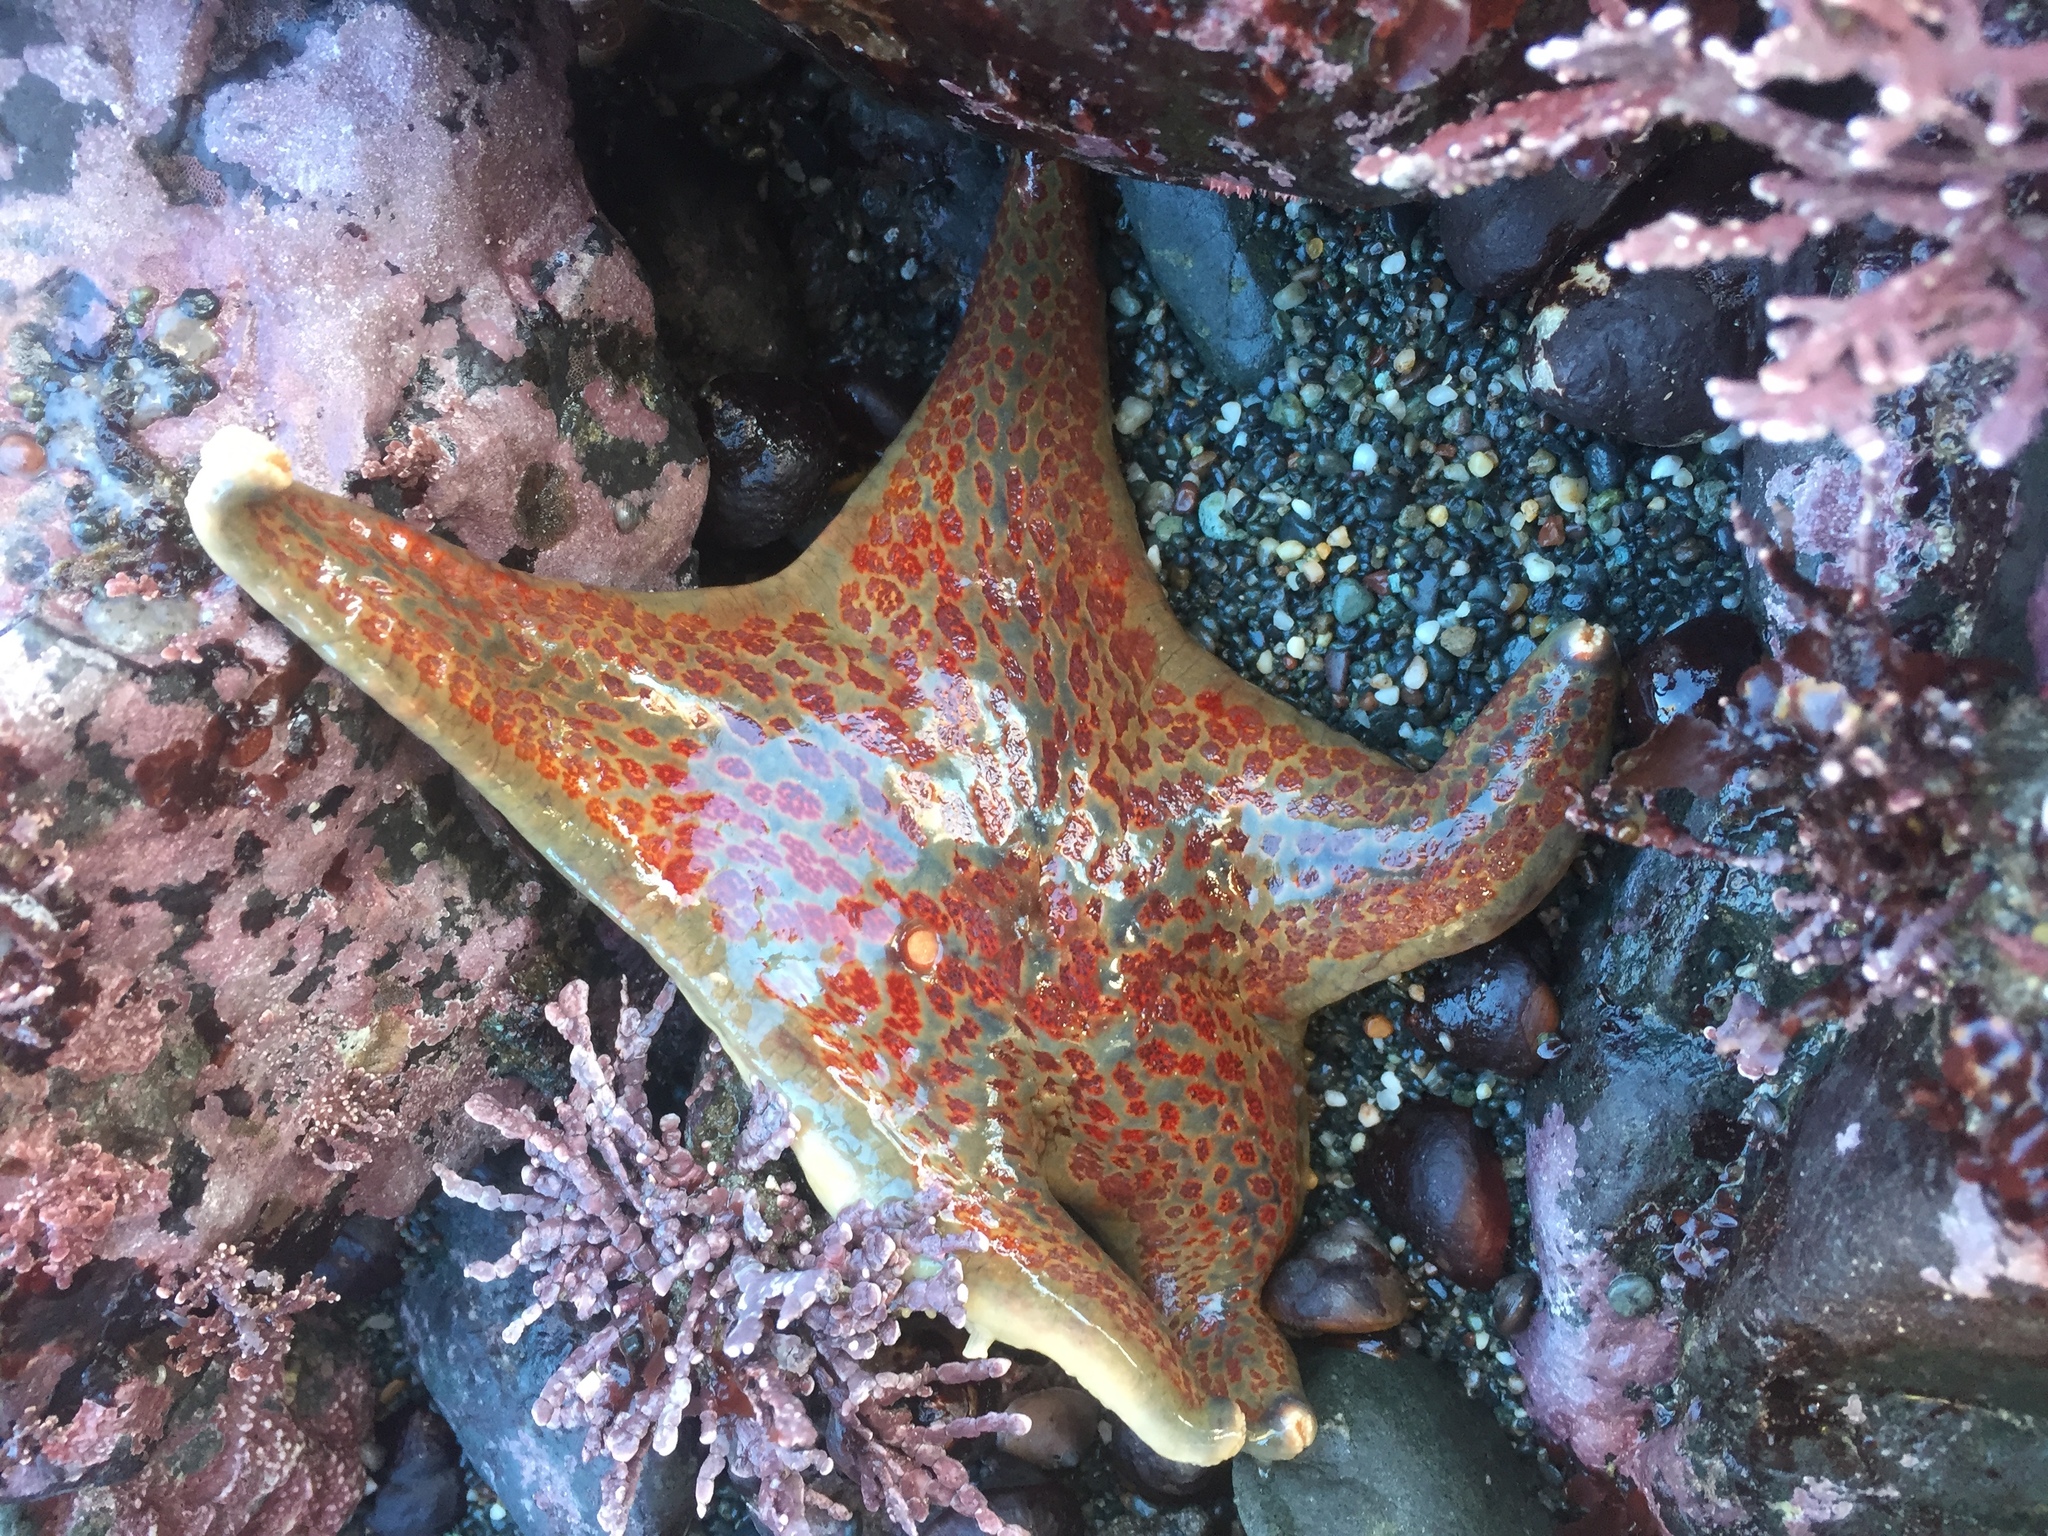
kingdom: Animalia
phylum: Echinodermata
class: Asteroidea
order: Valvatida
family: Asteropseidae
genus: Dermasterias
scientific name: Dermasterias imbricata
